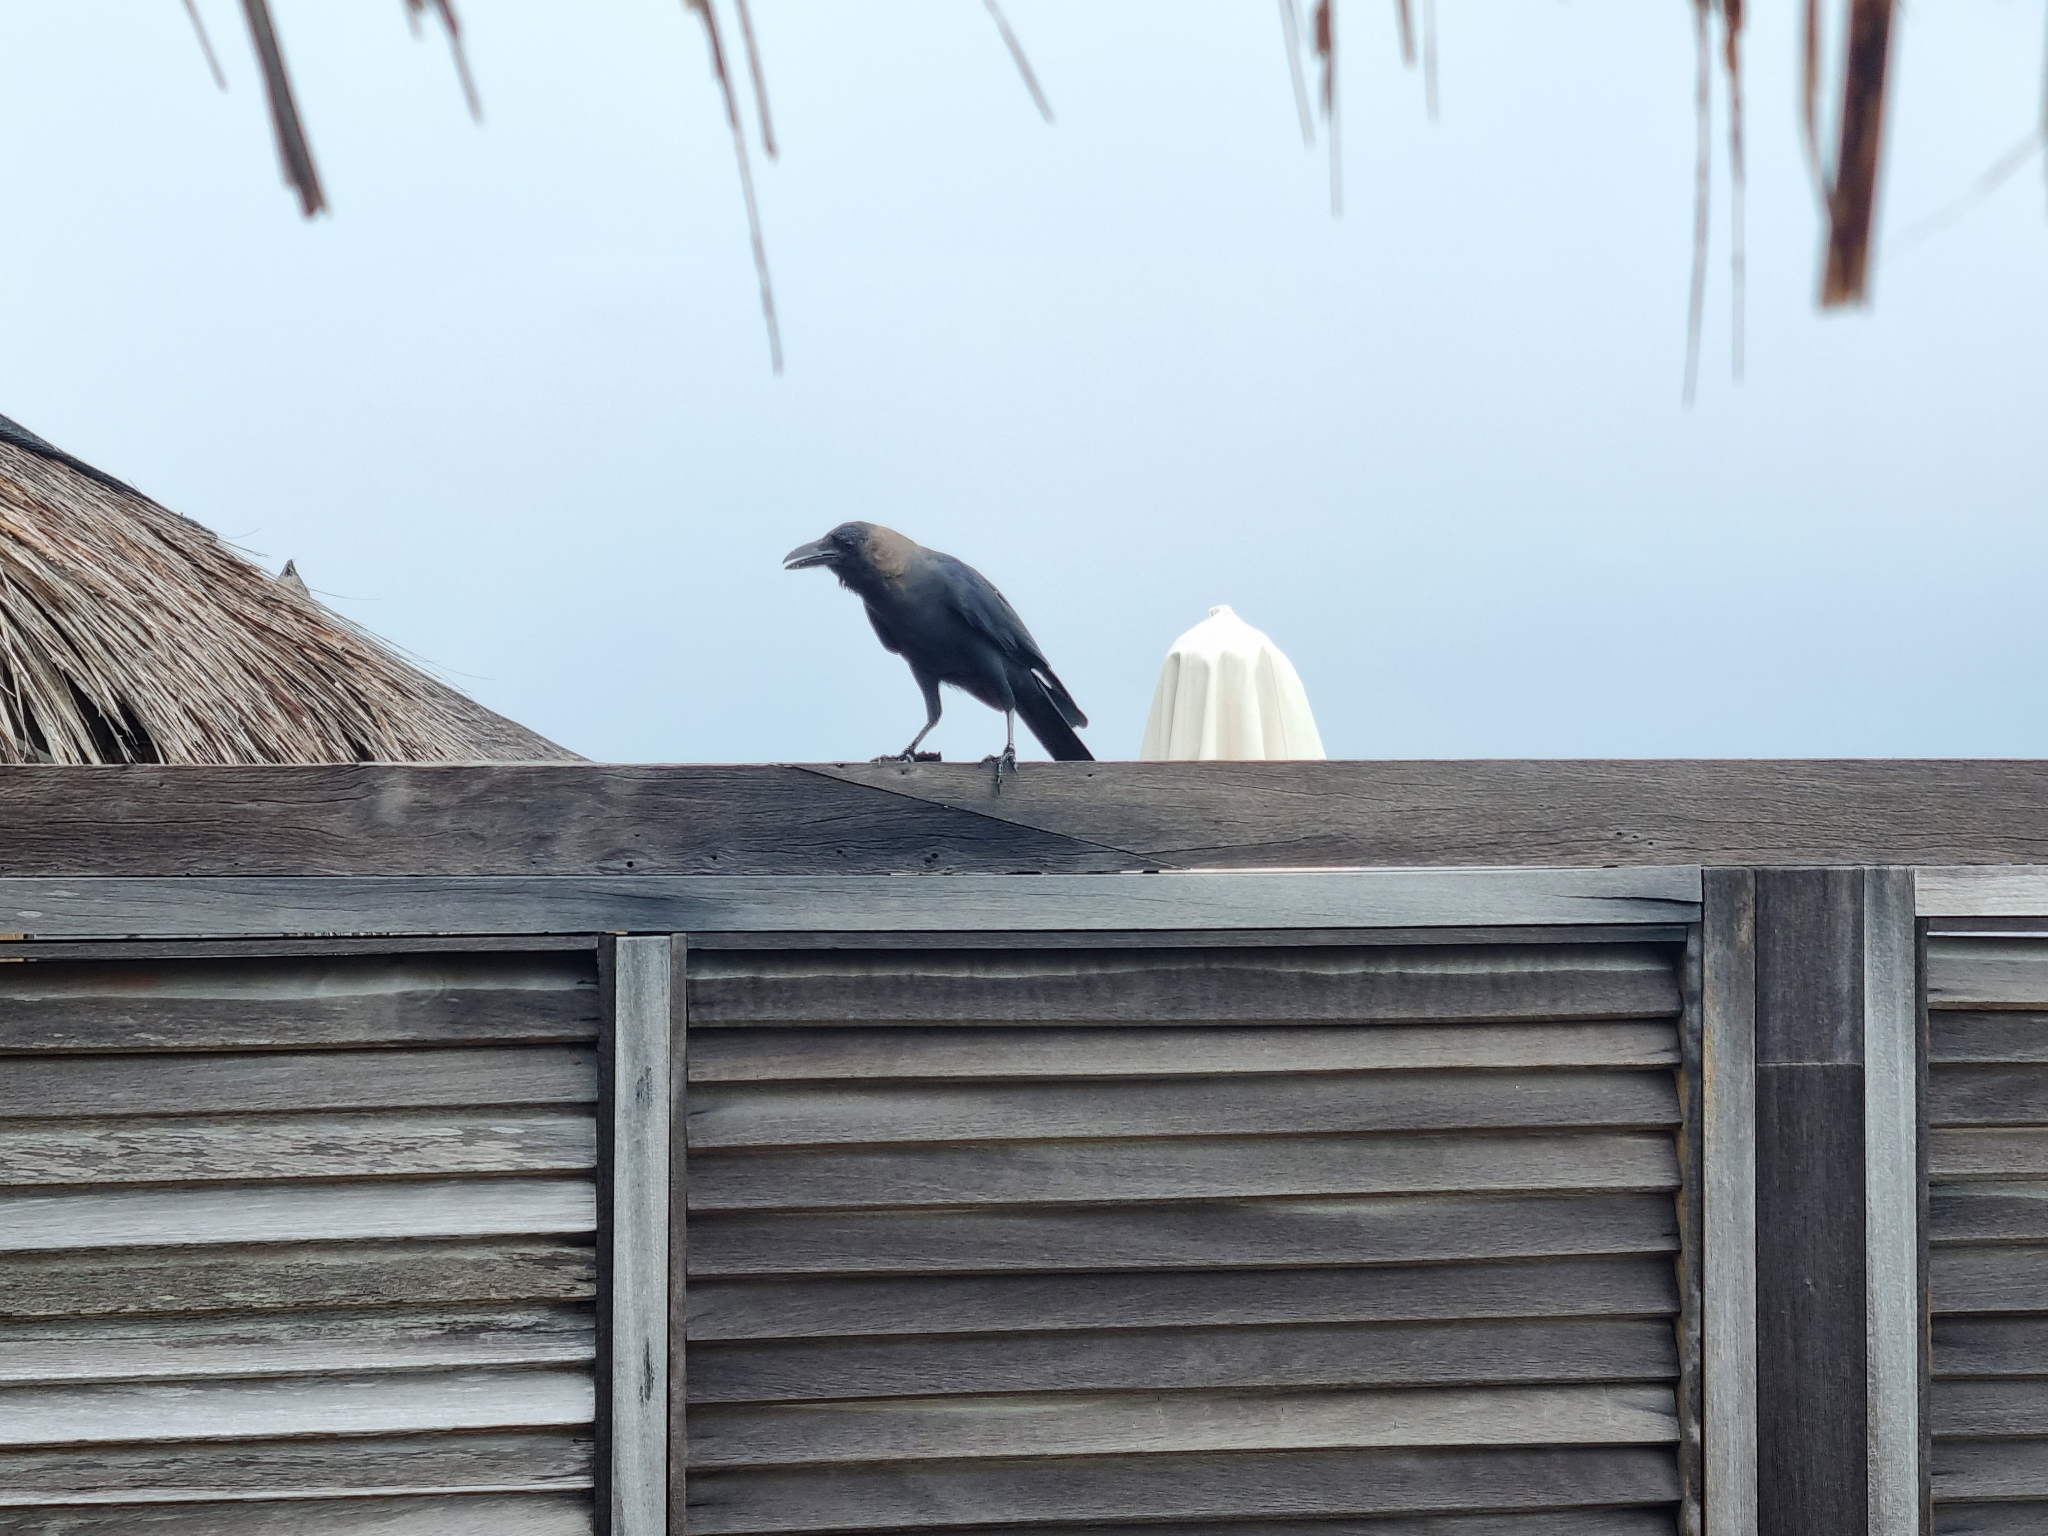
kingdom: Animalia
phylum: Chordata
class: Aves
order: Passeriformes
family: Corvidae
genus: Corvus
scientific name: Corvus splendens
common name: House crow
